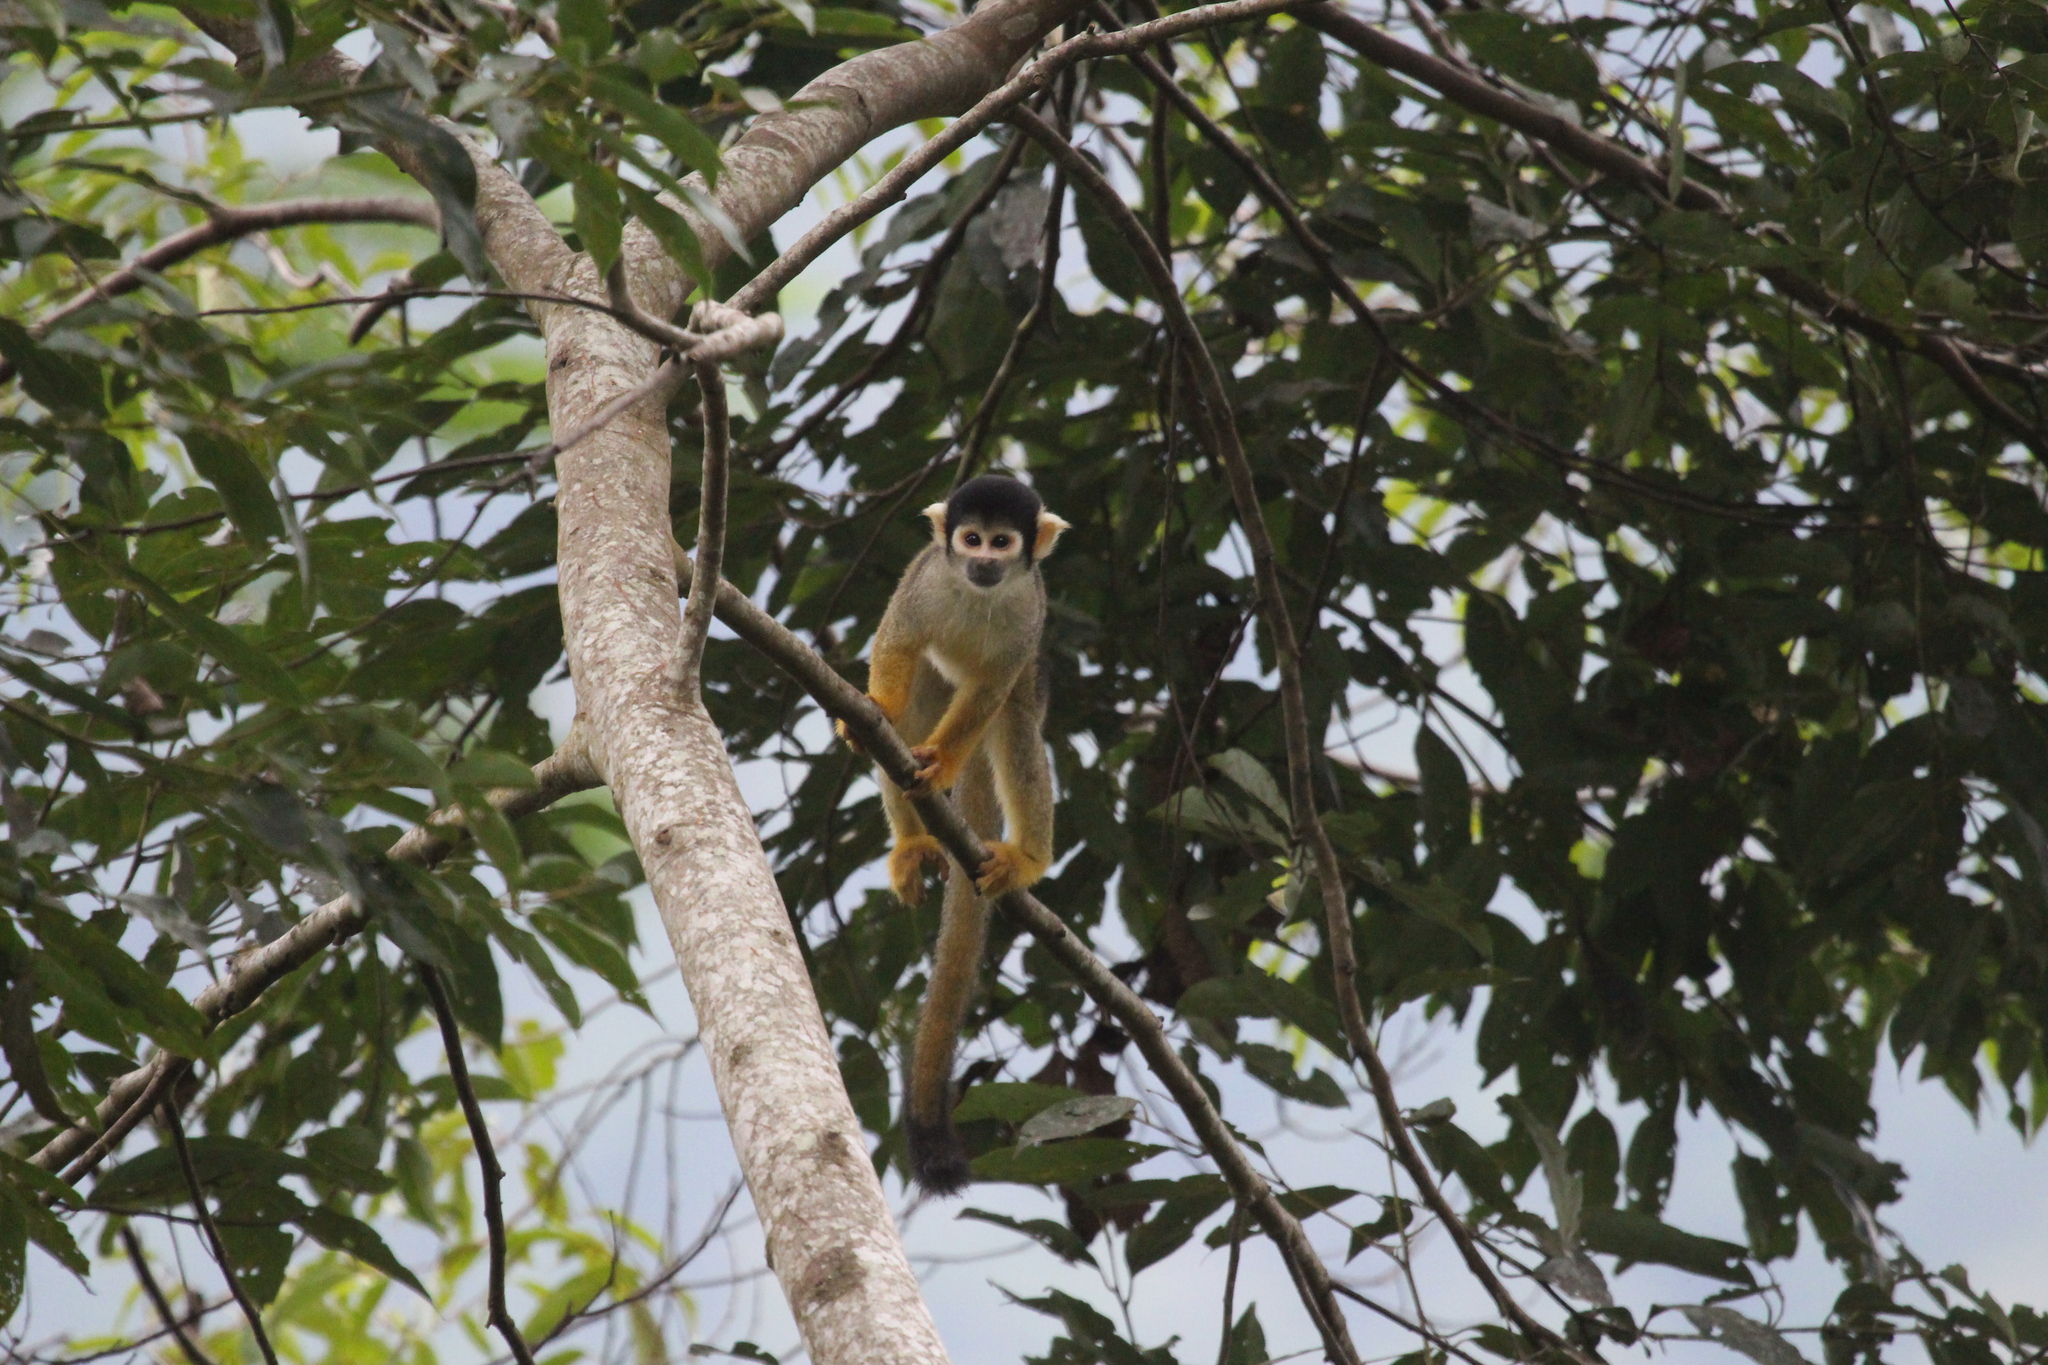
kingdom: Animalia
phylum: Chordata
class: Mammalia
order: Primates
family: Cebidae
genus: Saimiri
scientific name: Saimiri vanzolinii
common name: Black squirrel monkey
